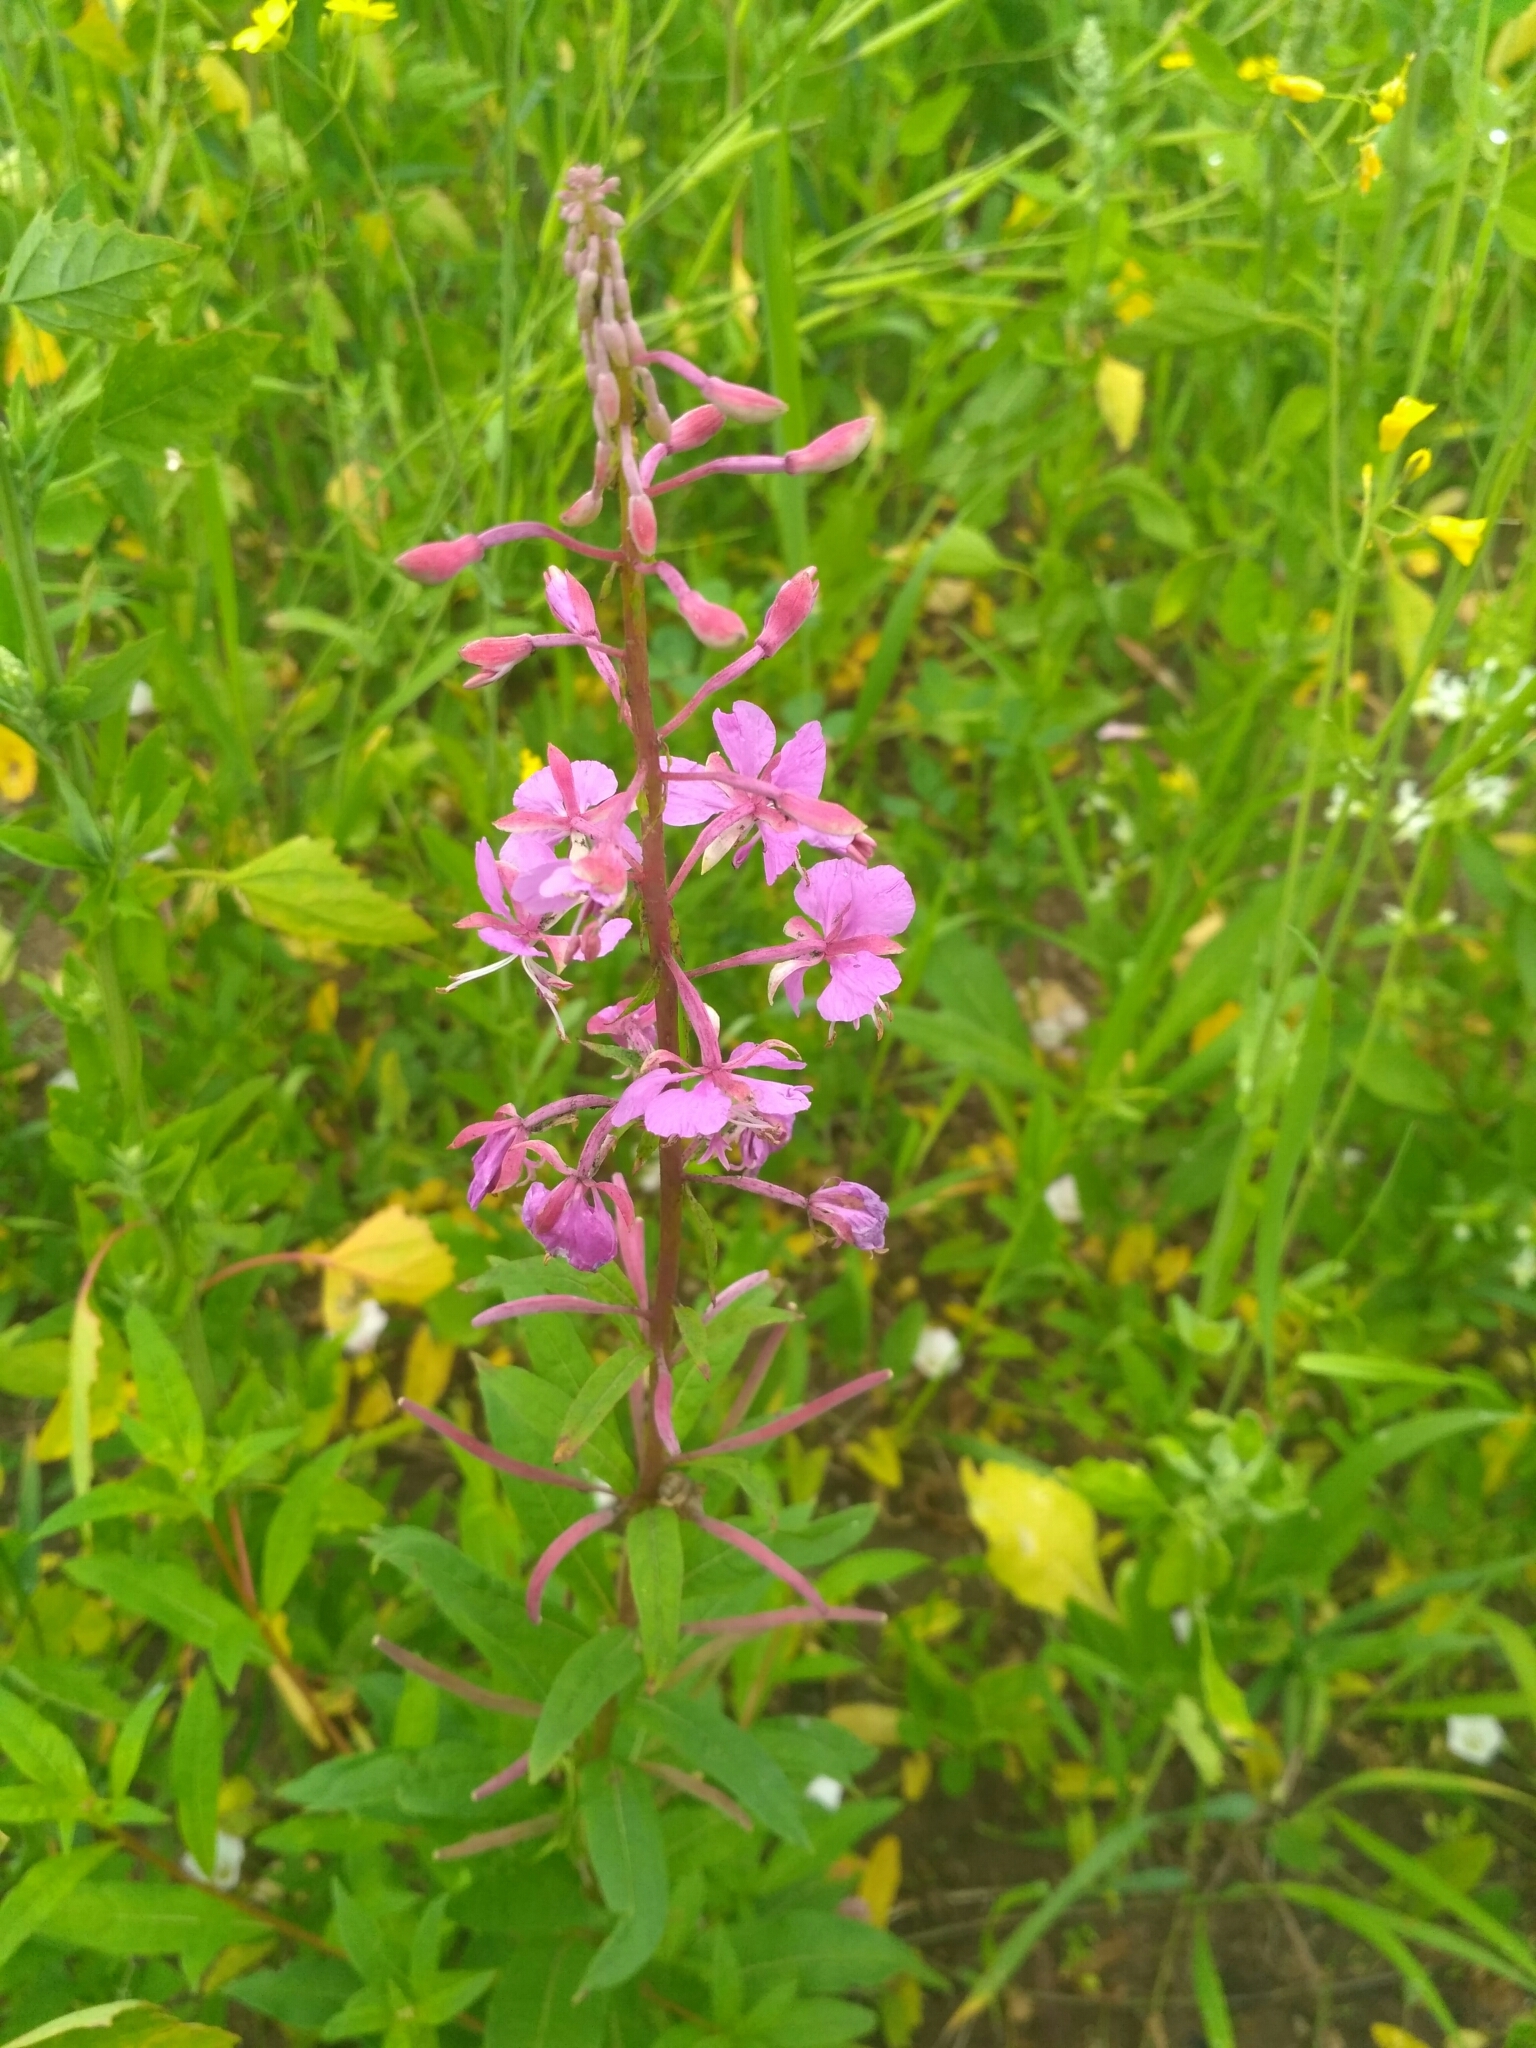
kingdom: Plantae
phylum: Tracheophyta
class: Magnoliopsida
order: Myrtales
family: Onagraceae
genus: Chamaenerion
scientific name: Chamaenerion angustifolium
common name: Fireweed
